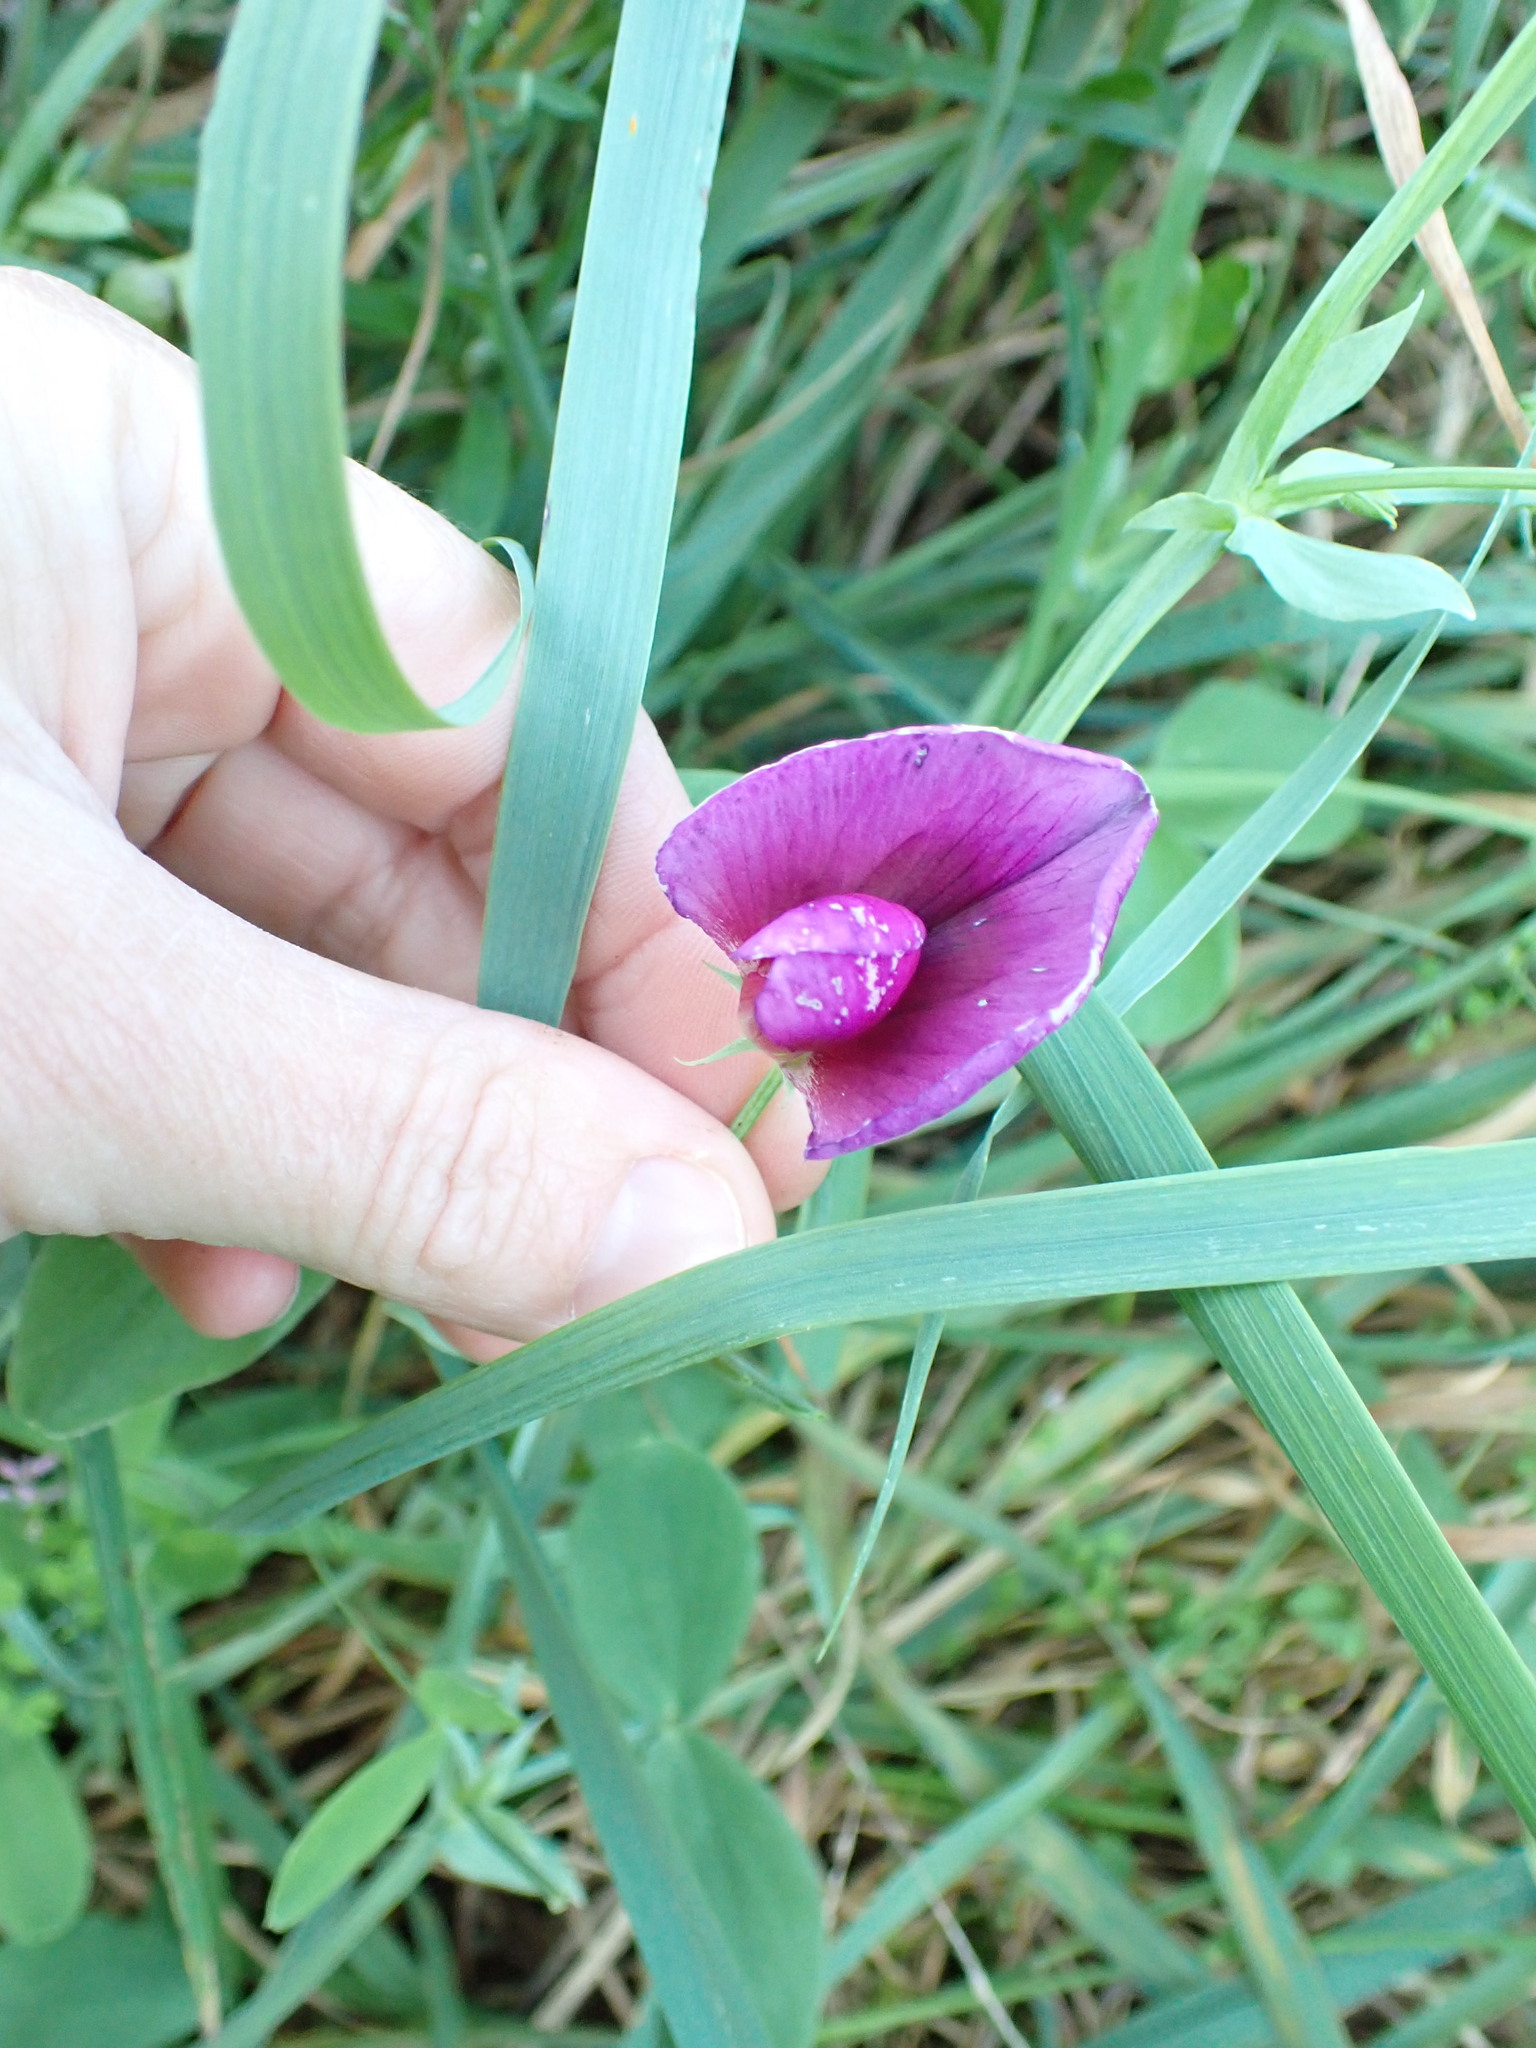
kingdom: Plantae
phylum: Tracheophyta
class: Magnoliopsida
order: Fabales
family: Fabaceae
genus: Lathyrus
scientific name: Lathyrus tingitanus
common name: Tangier pea
